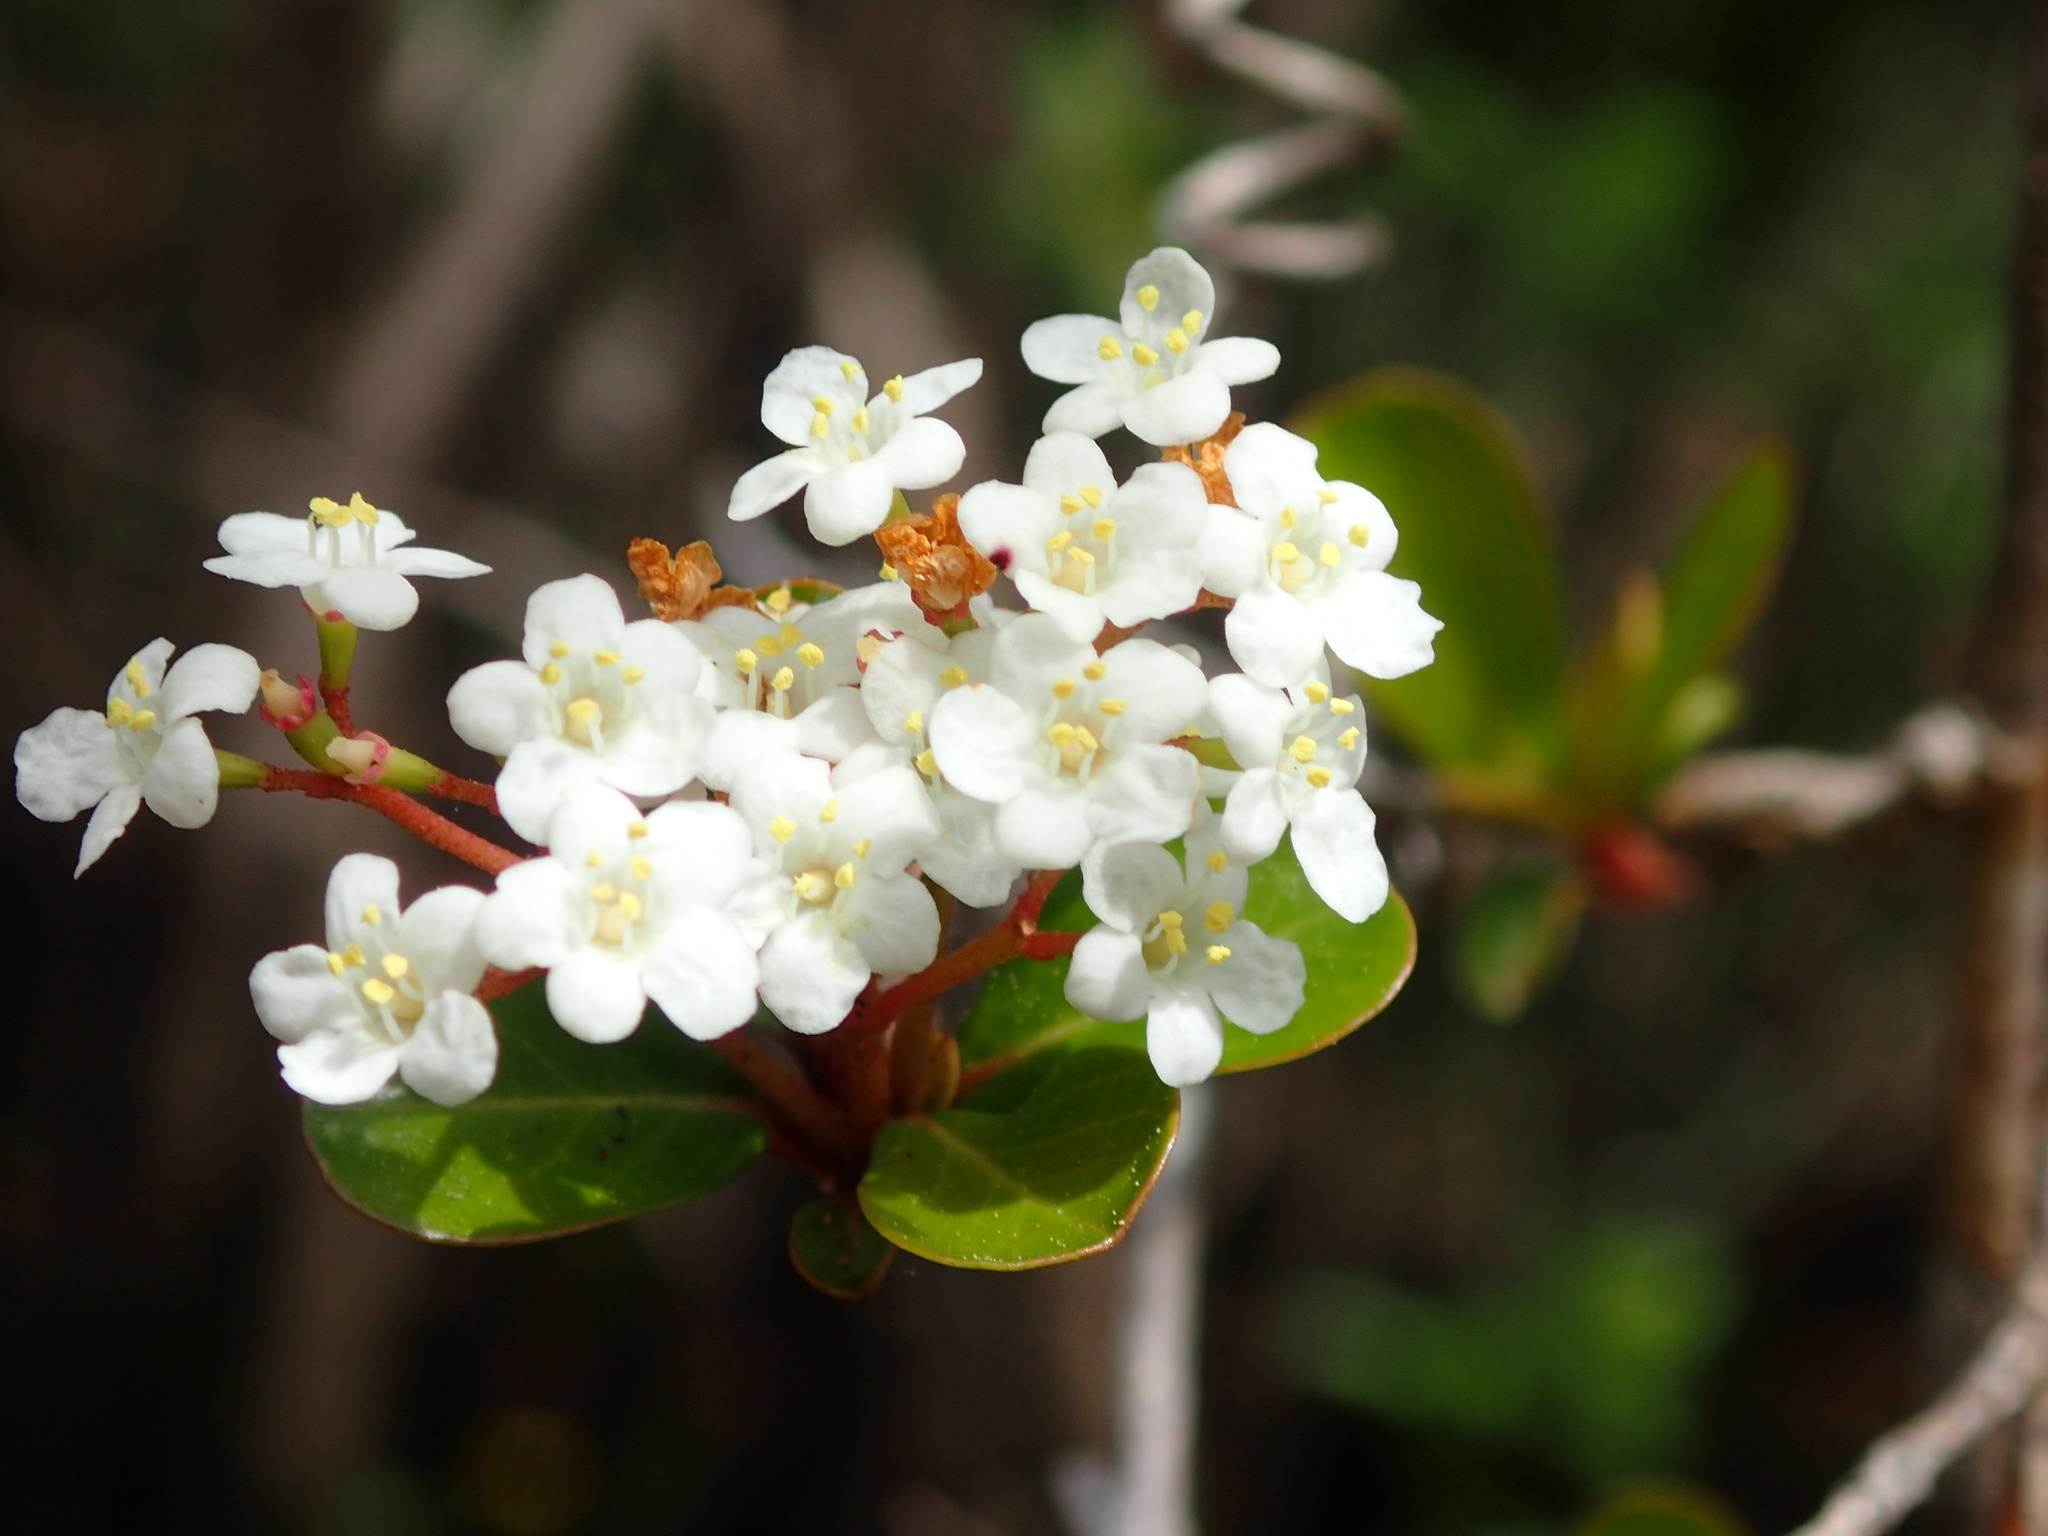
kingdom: Plantae
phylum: Tracheophyta
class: Magnoliopsida
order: Dipsacales
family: Viburnaceae
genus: Viburnum
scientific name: Viburnum obovatum
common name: Walter's viburnum
